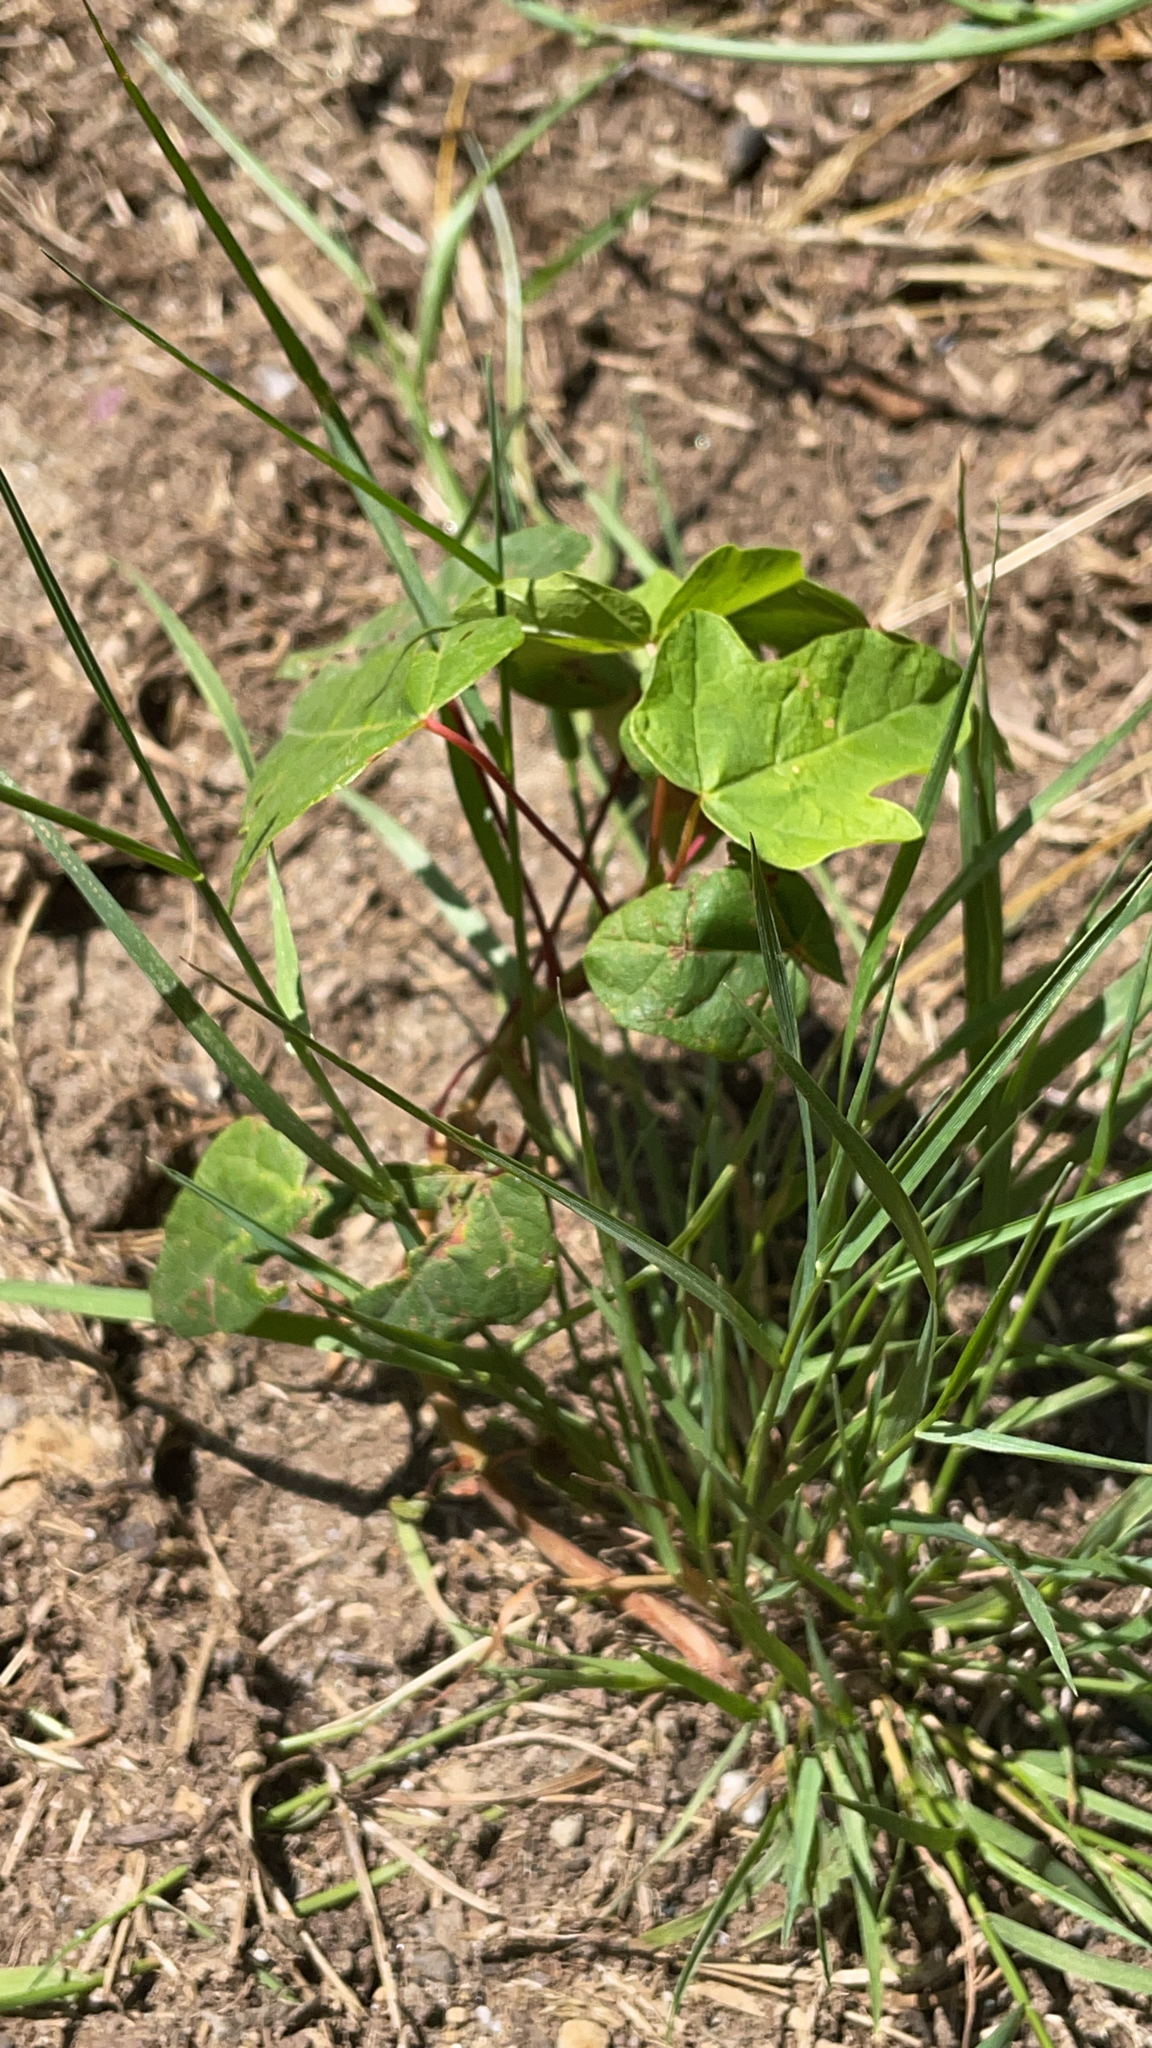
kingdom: Plantae
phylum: Tracheophyta
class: Magnoliopsida
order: Sapindales
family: Sapindaceae
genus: Acer
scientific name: Acer macrophyllum
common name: Oregon maple
